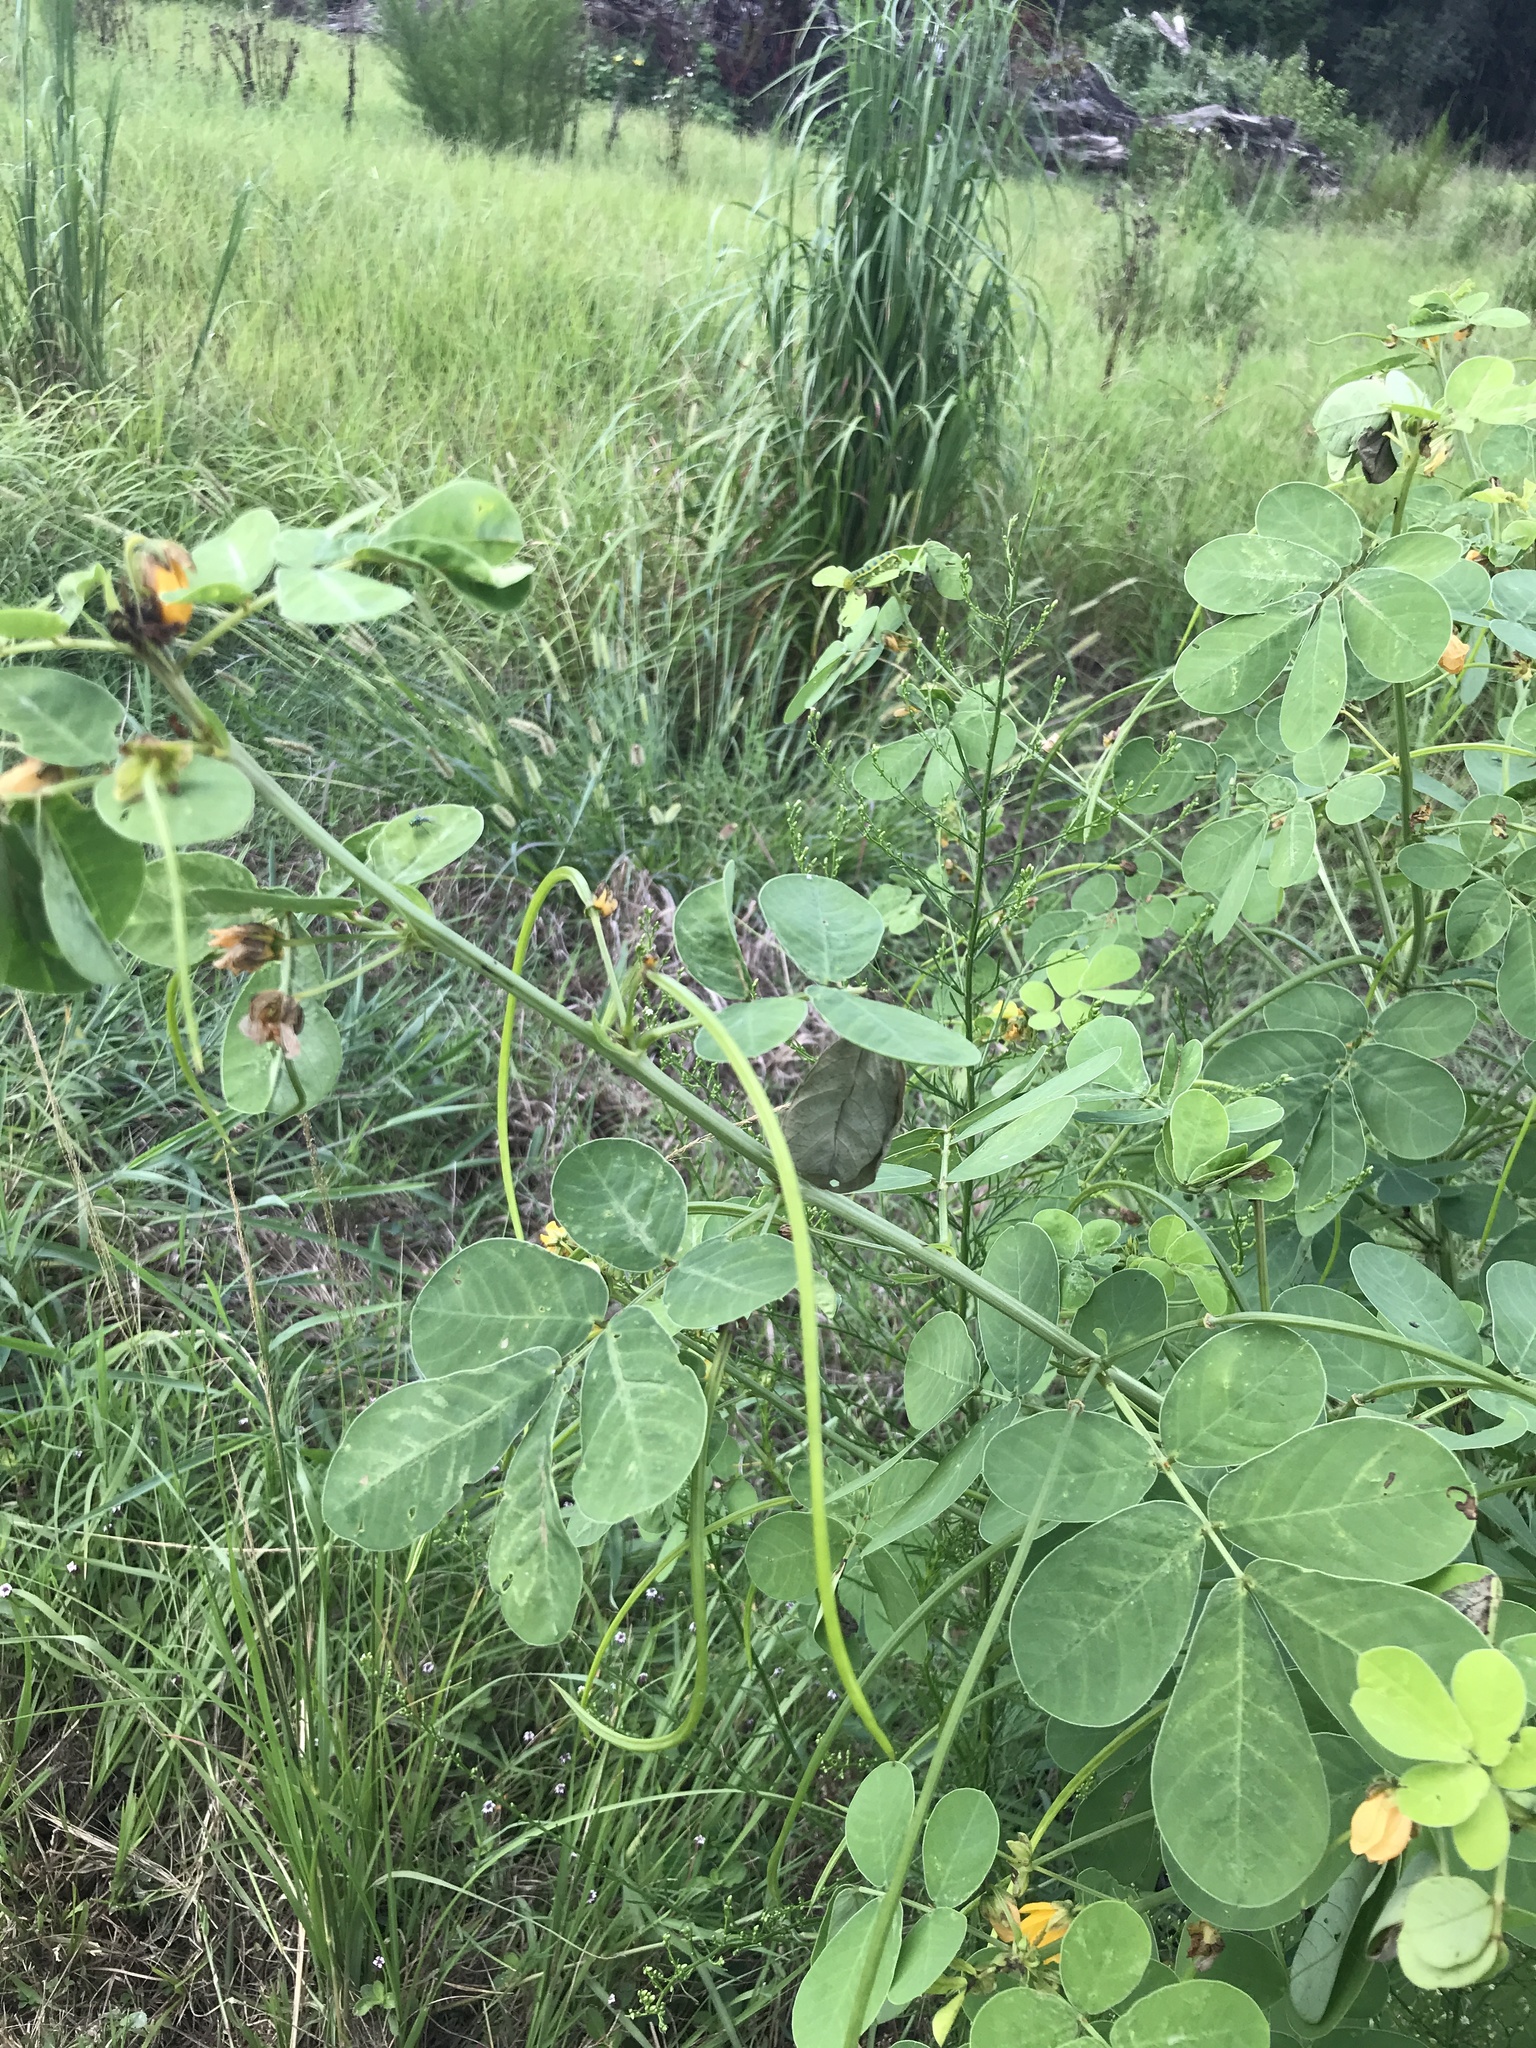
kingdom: Plantae
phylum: Tracheophyta
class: Magnoliopsida
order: Fabales
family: Fabaceae
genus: Senna
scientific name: Senna obtusifolia
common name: Java-bean
